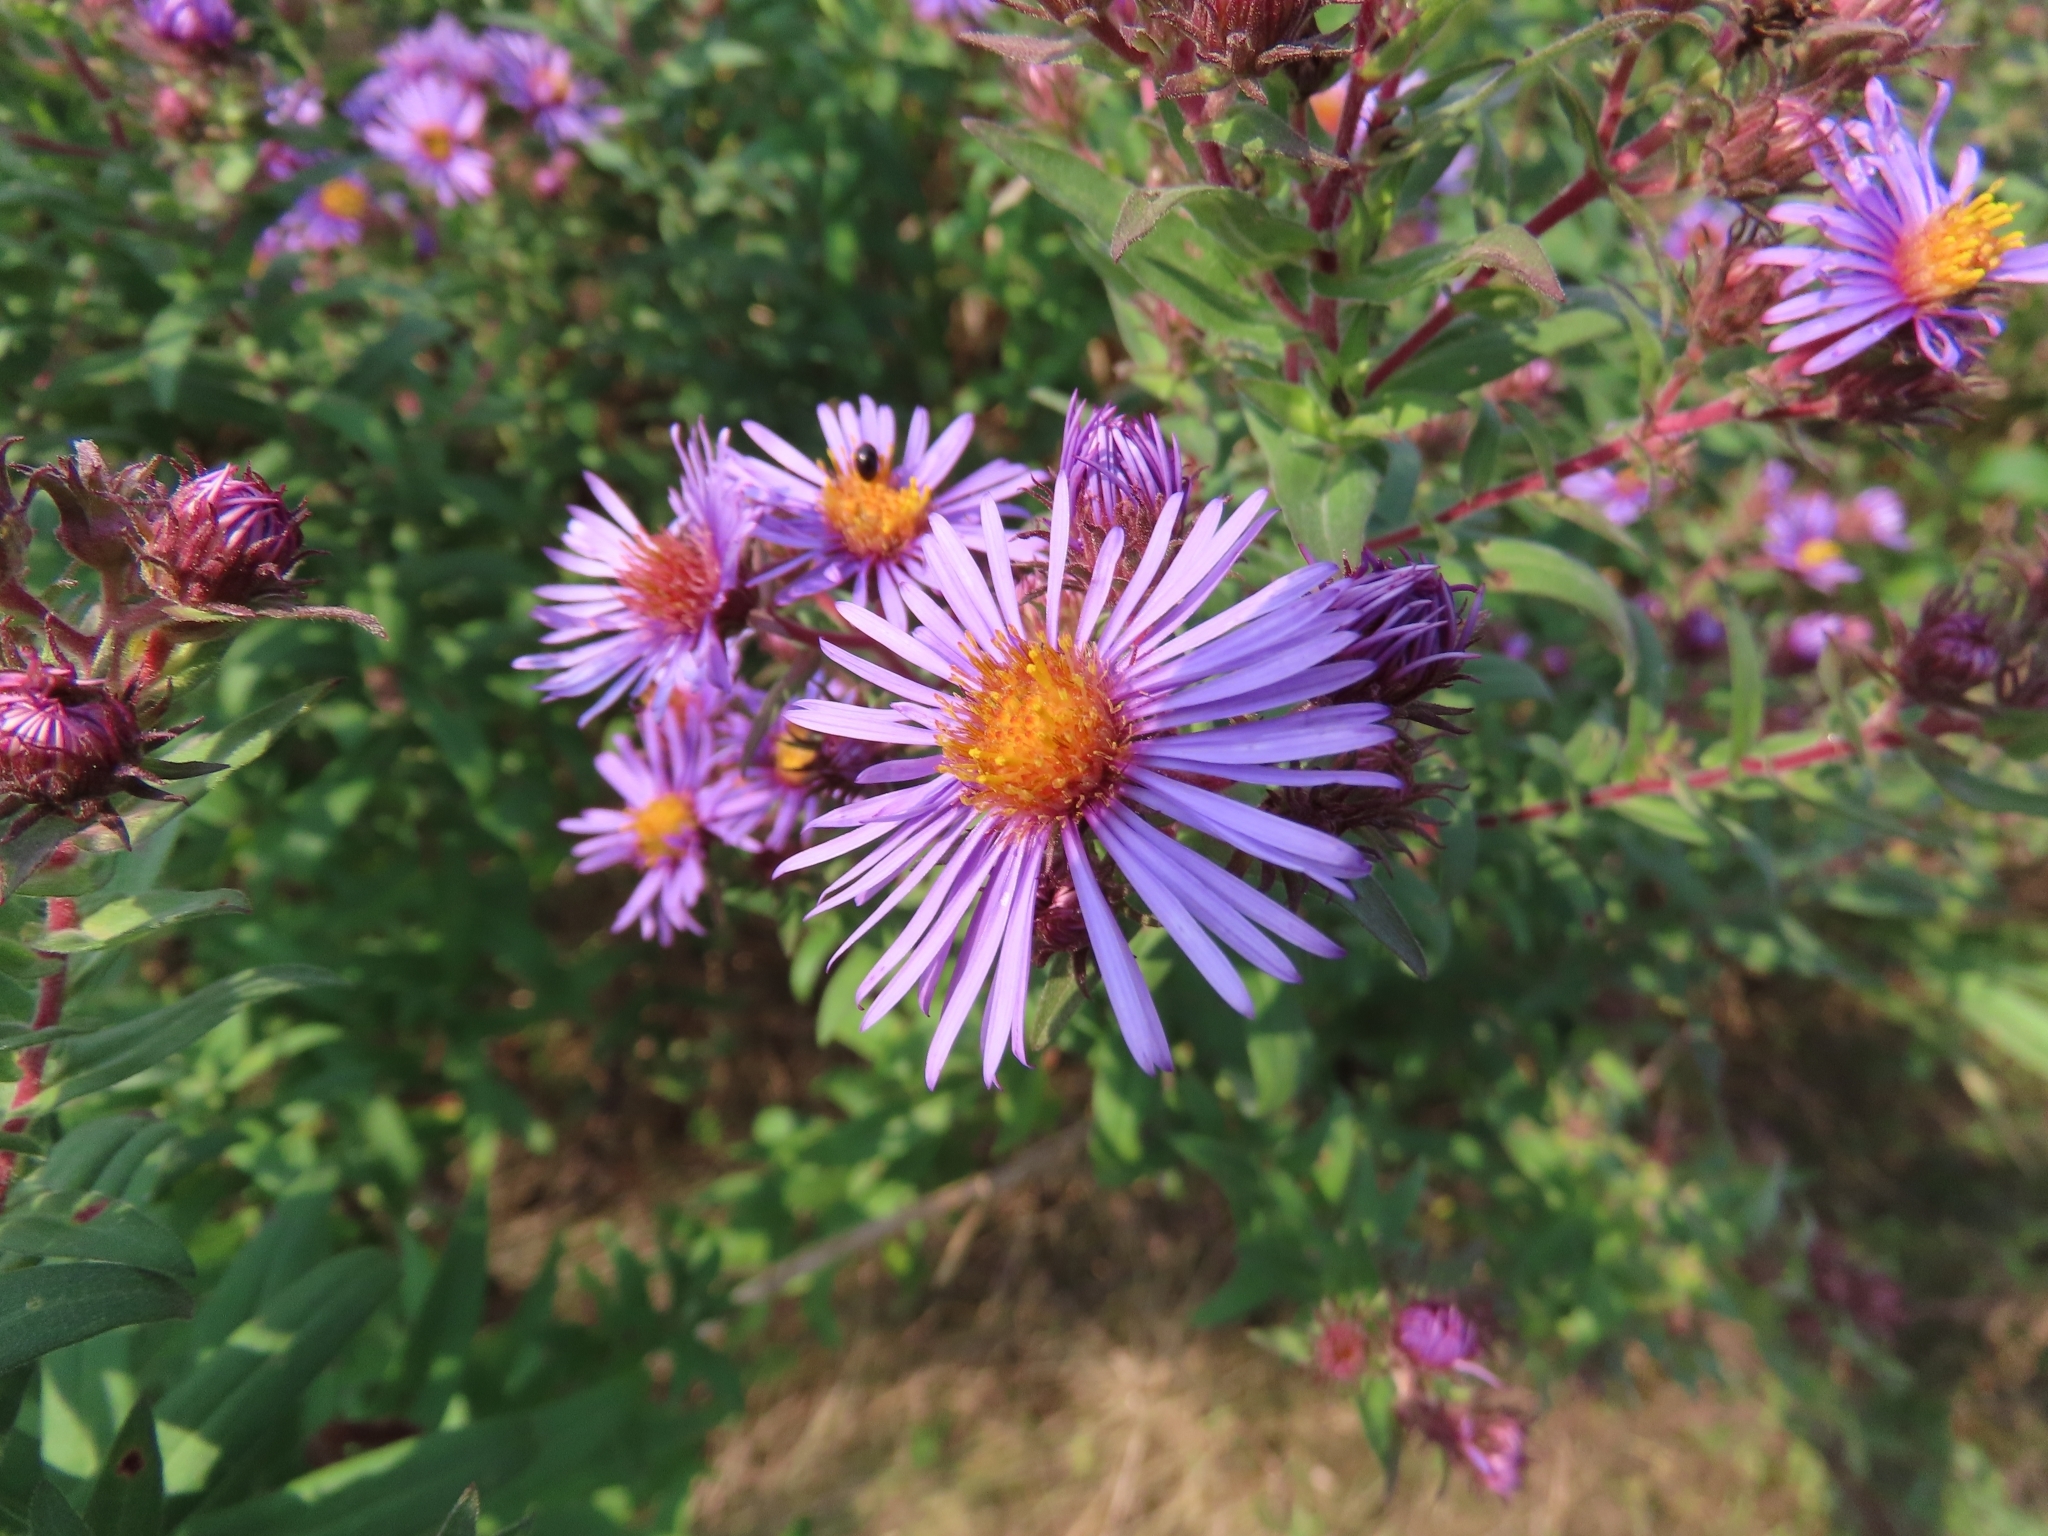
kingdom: Plantae
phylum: Tracheophyta
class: Magnoliopsida
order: Asterales
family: Asteraceae
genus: Symphyotrichum
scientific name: Symphyotrichum novae-angliae
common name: Michaelmas daisy
